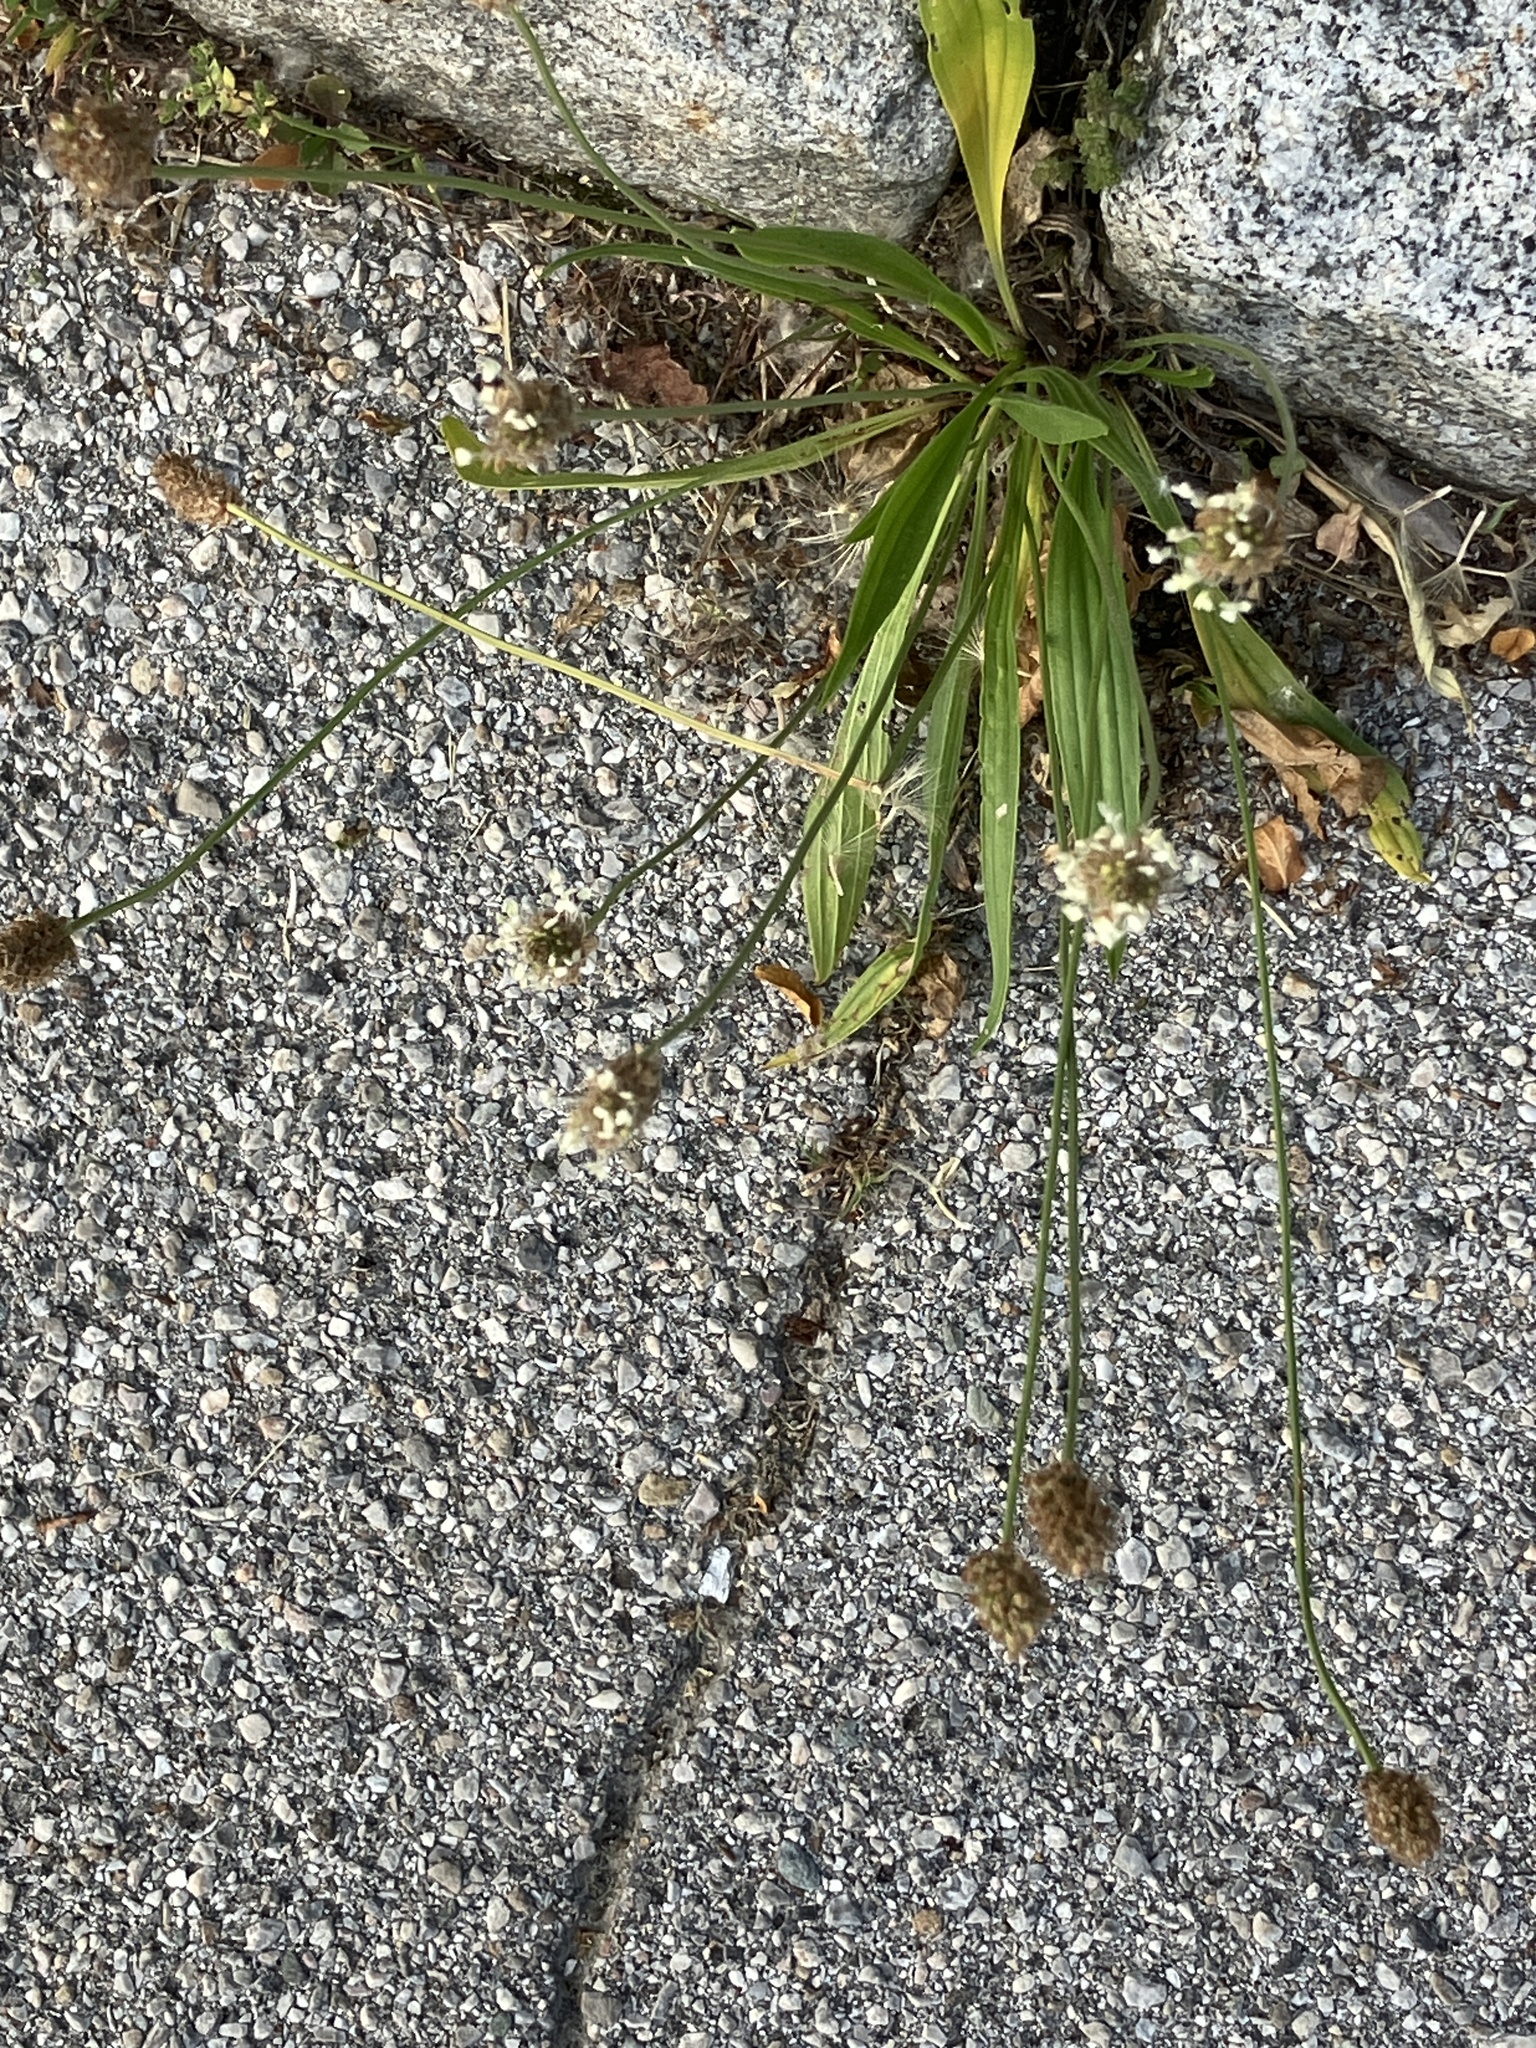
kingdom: Plantae
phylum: Tracheophyta
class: Magnoliopsida
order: Lamiales
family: Plantaginaceae
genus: Plantago
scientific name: Plantago lanceolata
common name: Ribwort plantain
